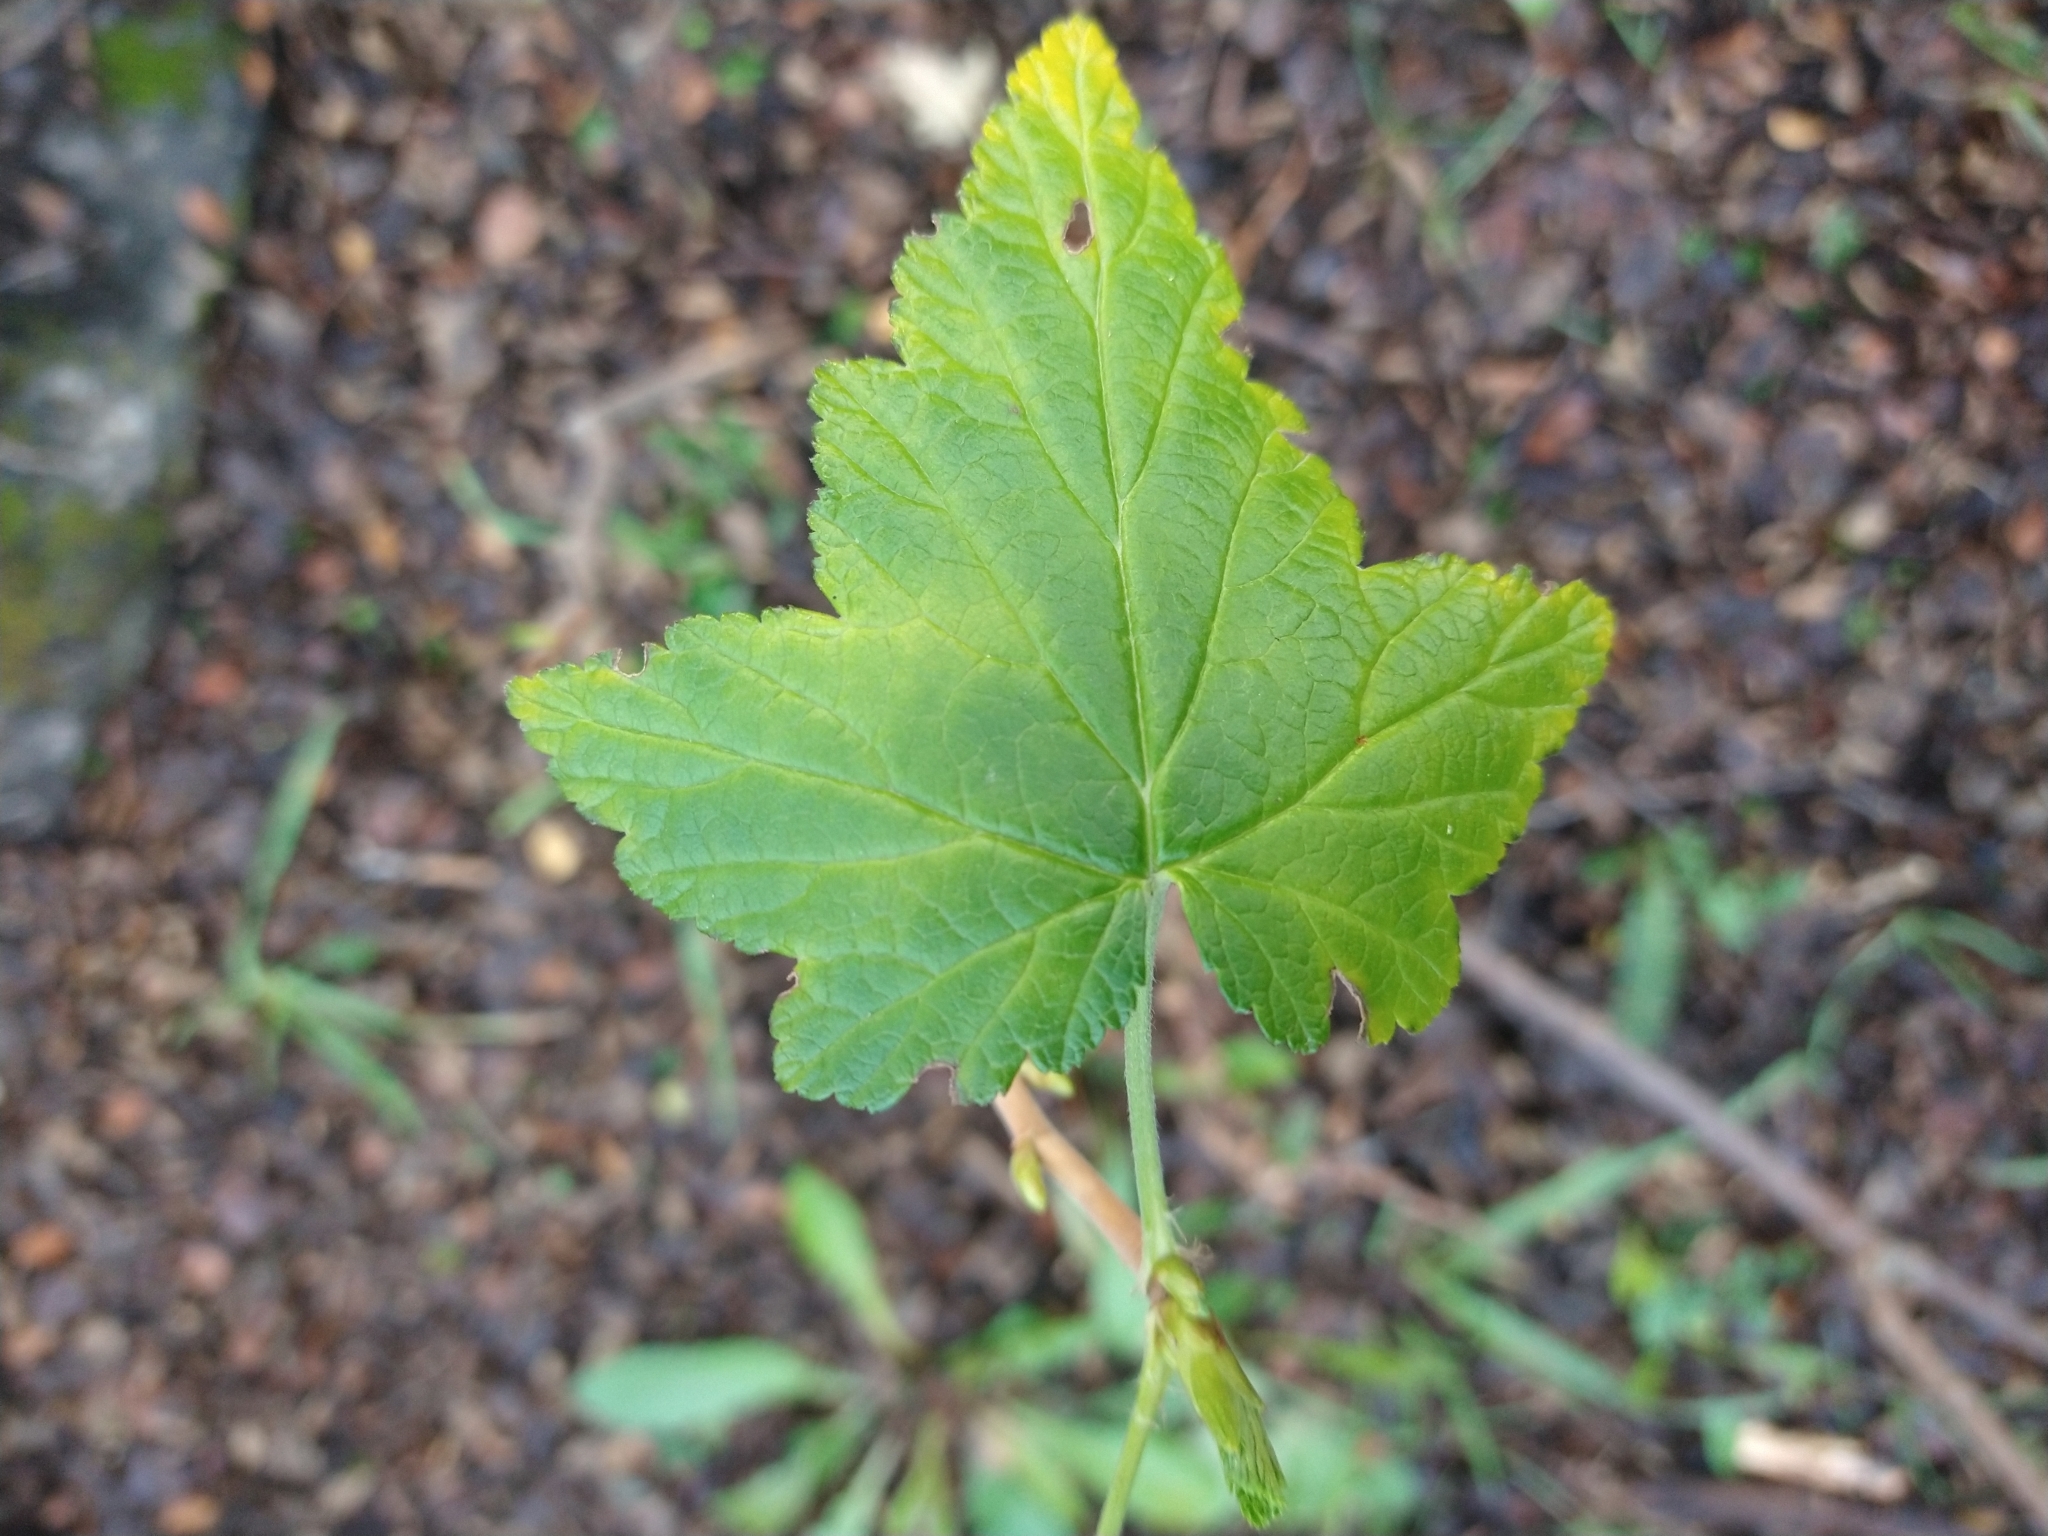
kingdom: Plantae
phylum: Tracheophyta
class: Magnoliopsida
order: Saxifragales
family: Grossulariaceae
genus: Ribes
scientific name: Ribes magellanicum
